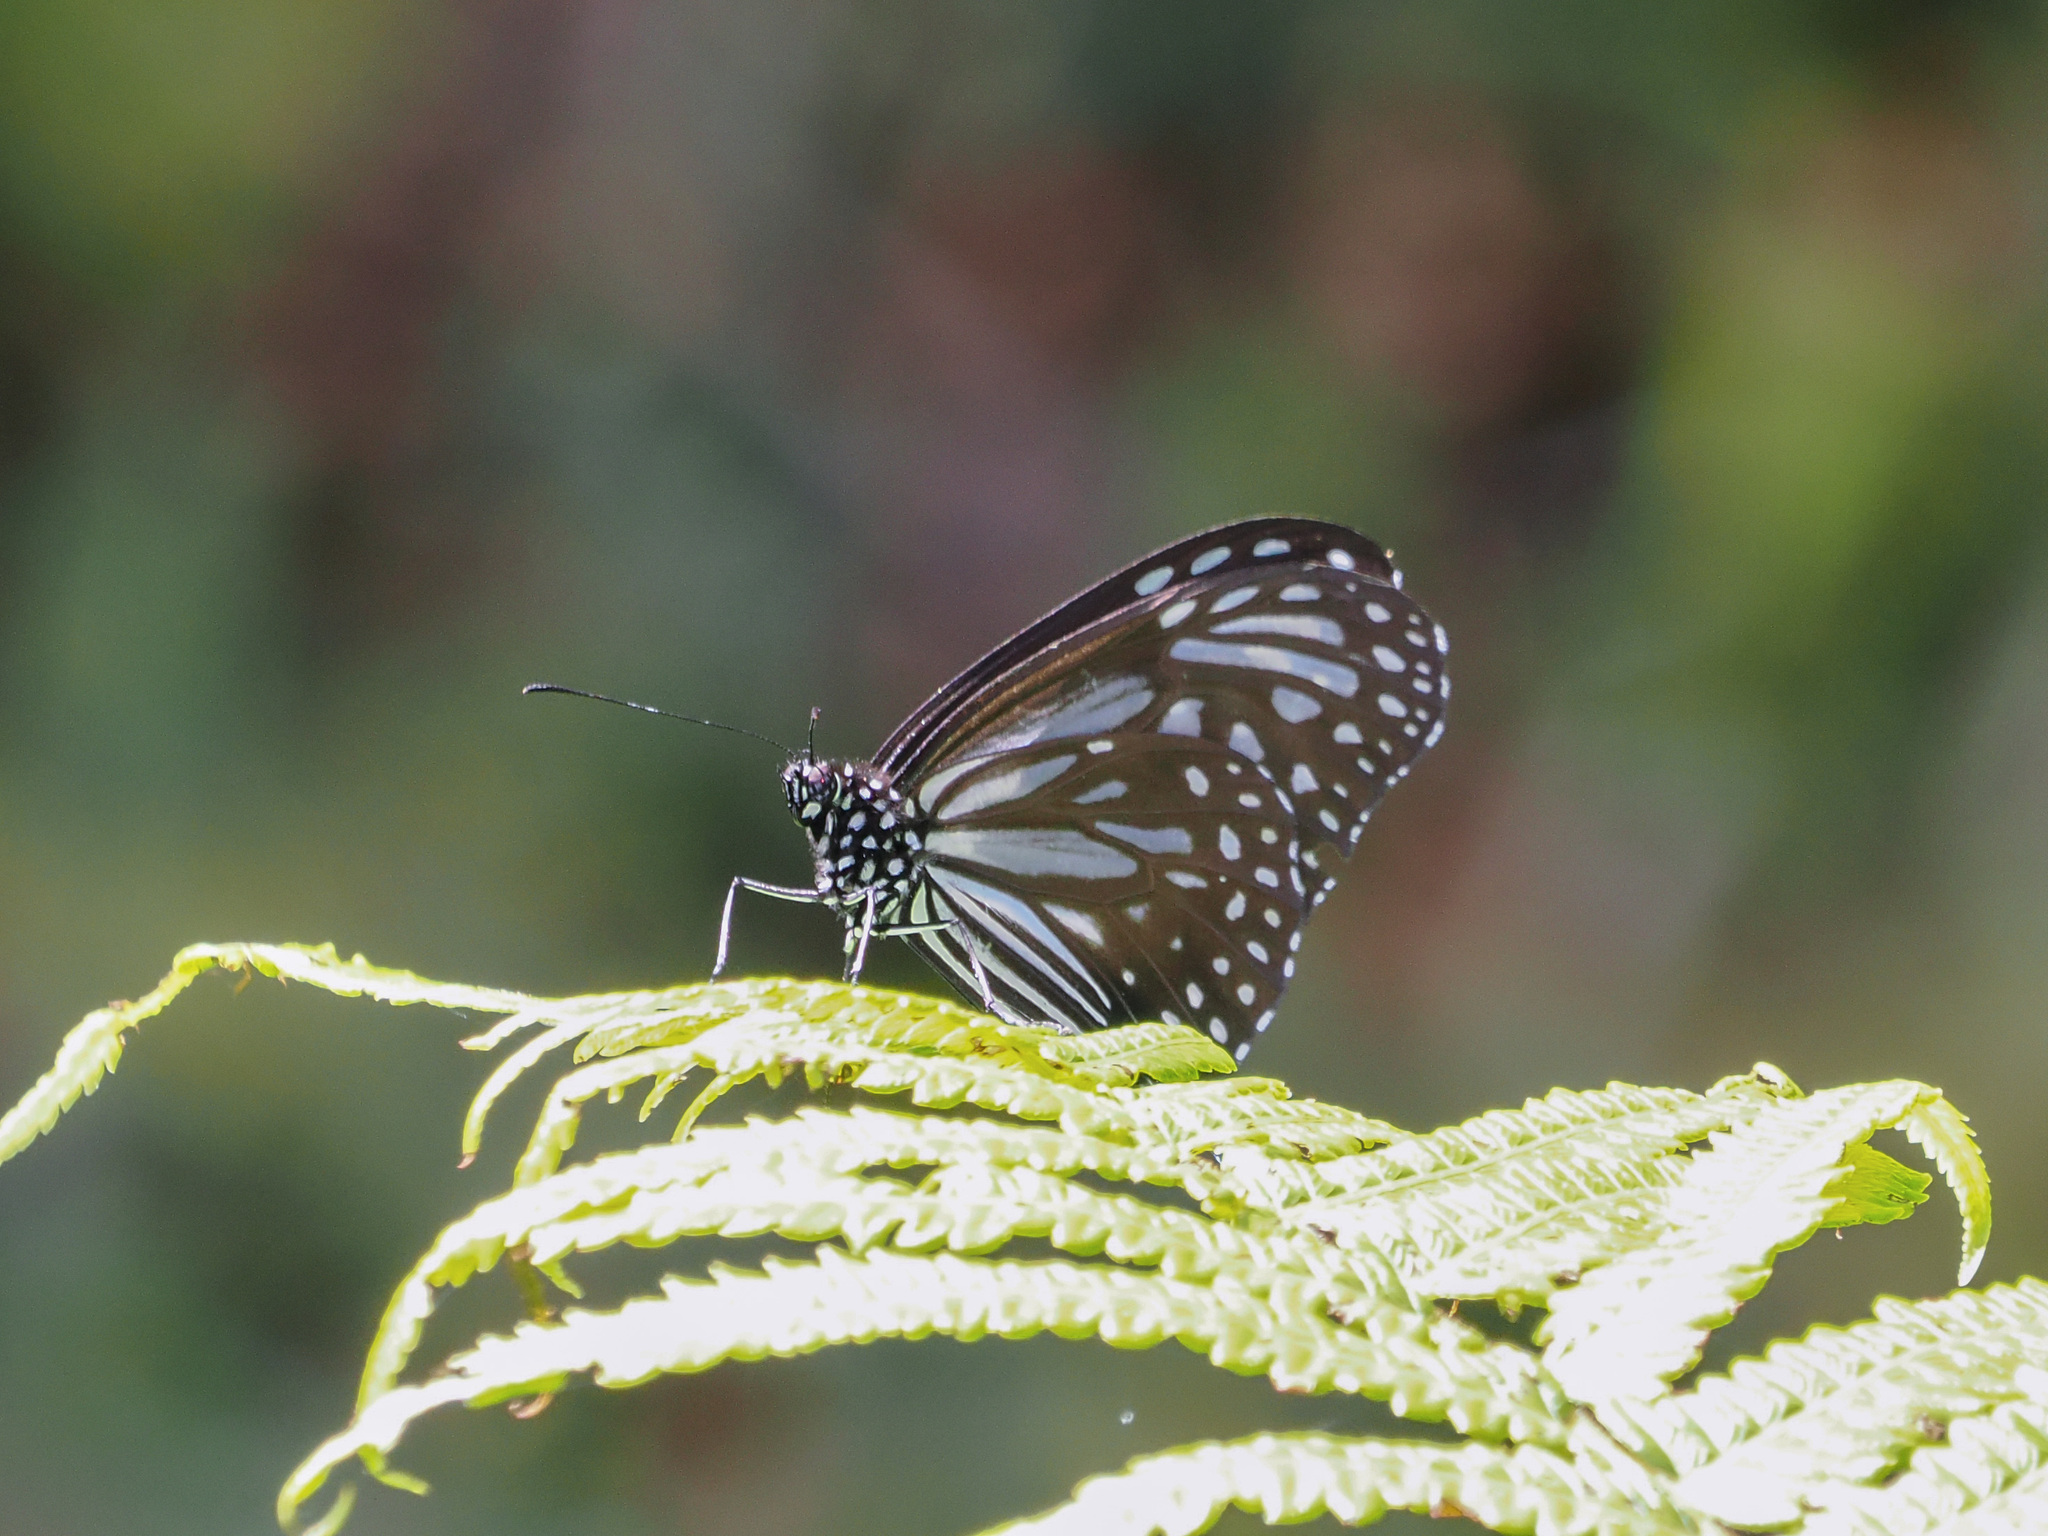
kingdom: Animalia
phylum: Arthropoda
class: Insecta
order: Lepidoptera
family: Nymphalidae
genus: Parantica
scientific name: Parantica crowleyi
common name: Crowley's tiger
